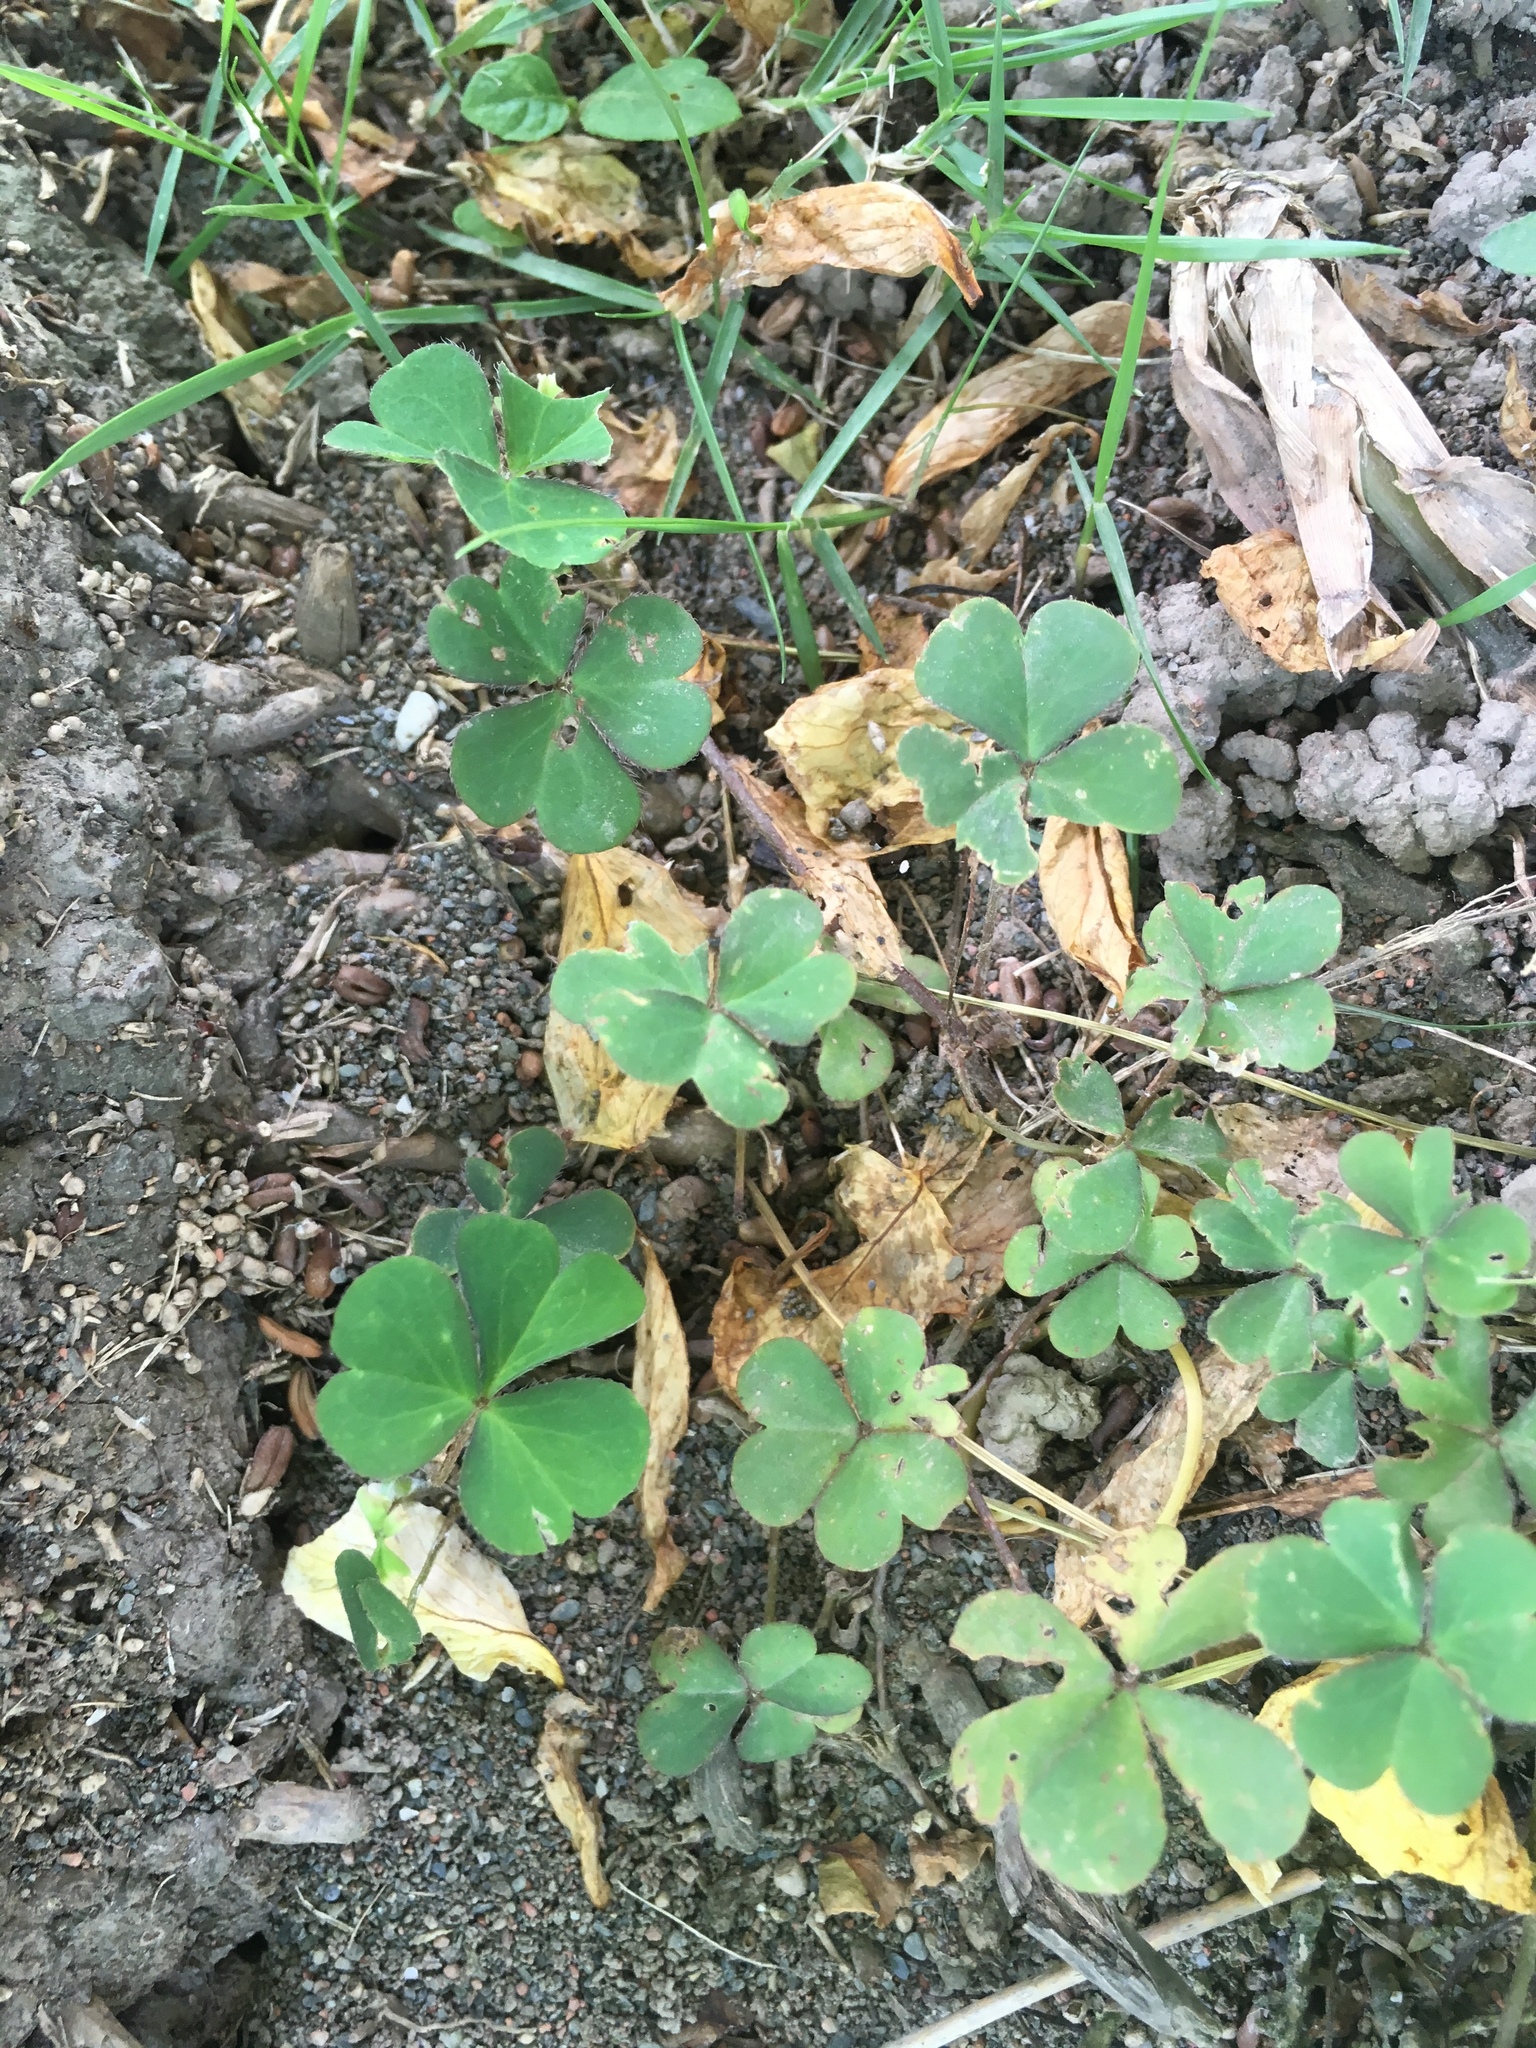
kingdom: Plantae
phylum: Tracheophyta
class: Magnoliopsida
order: Oxalidales
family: Oxalidaceae
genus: Oxalis
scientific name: Oxalis corniculata
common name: Procumbent yellow-sorrel
